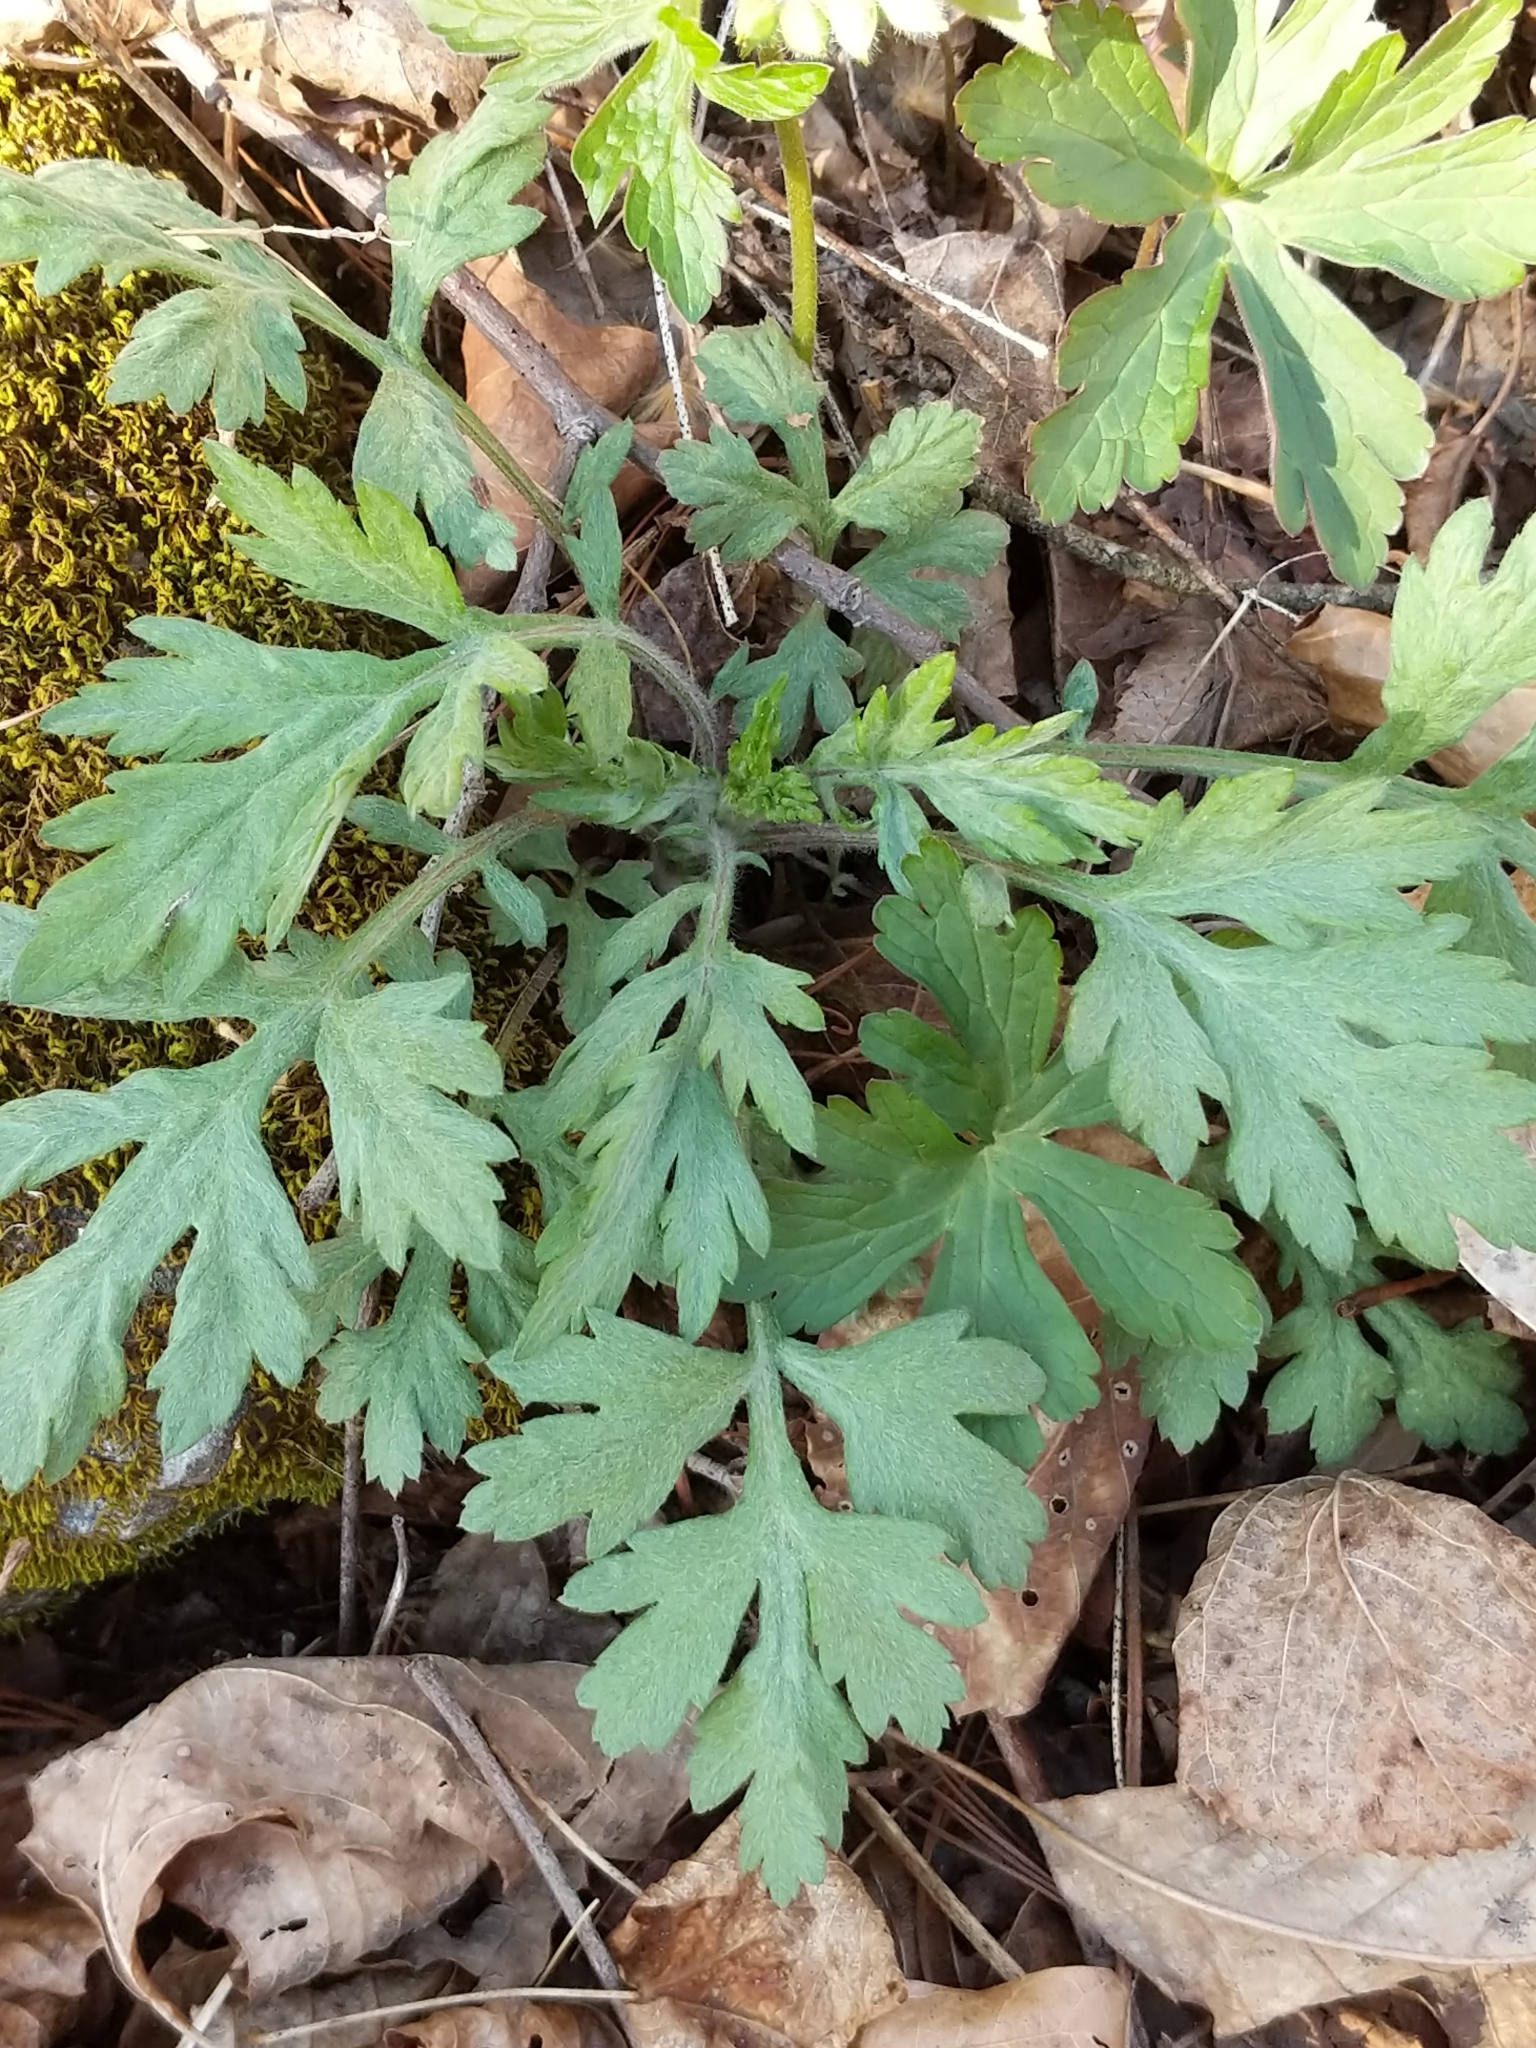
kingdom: Plantae
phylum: Tracheophyta
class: Magnoliopsida
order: Asterales
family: Asteraceae
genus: Artemisia
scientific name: Artemisia vulgaris
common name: Mugwort
